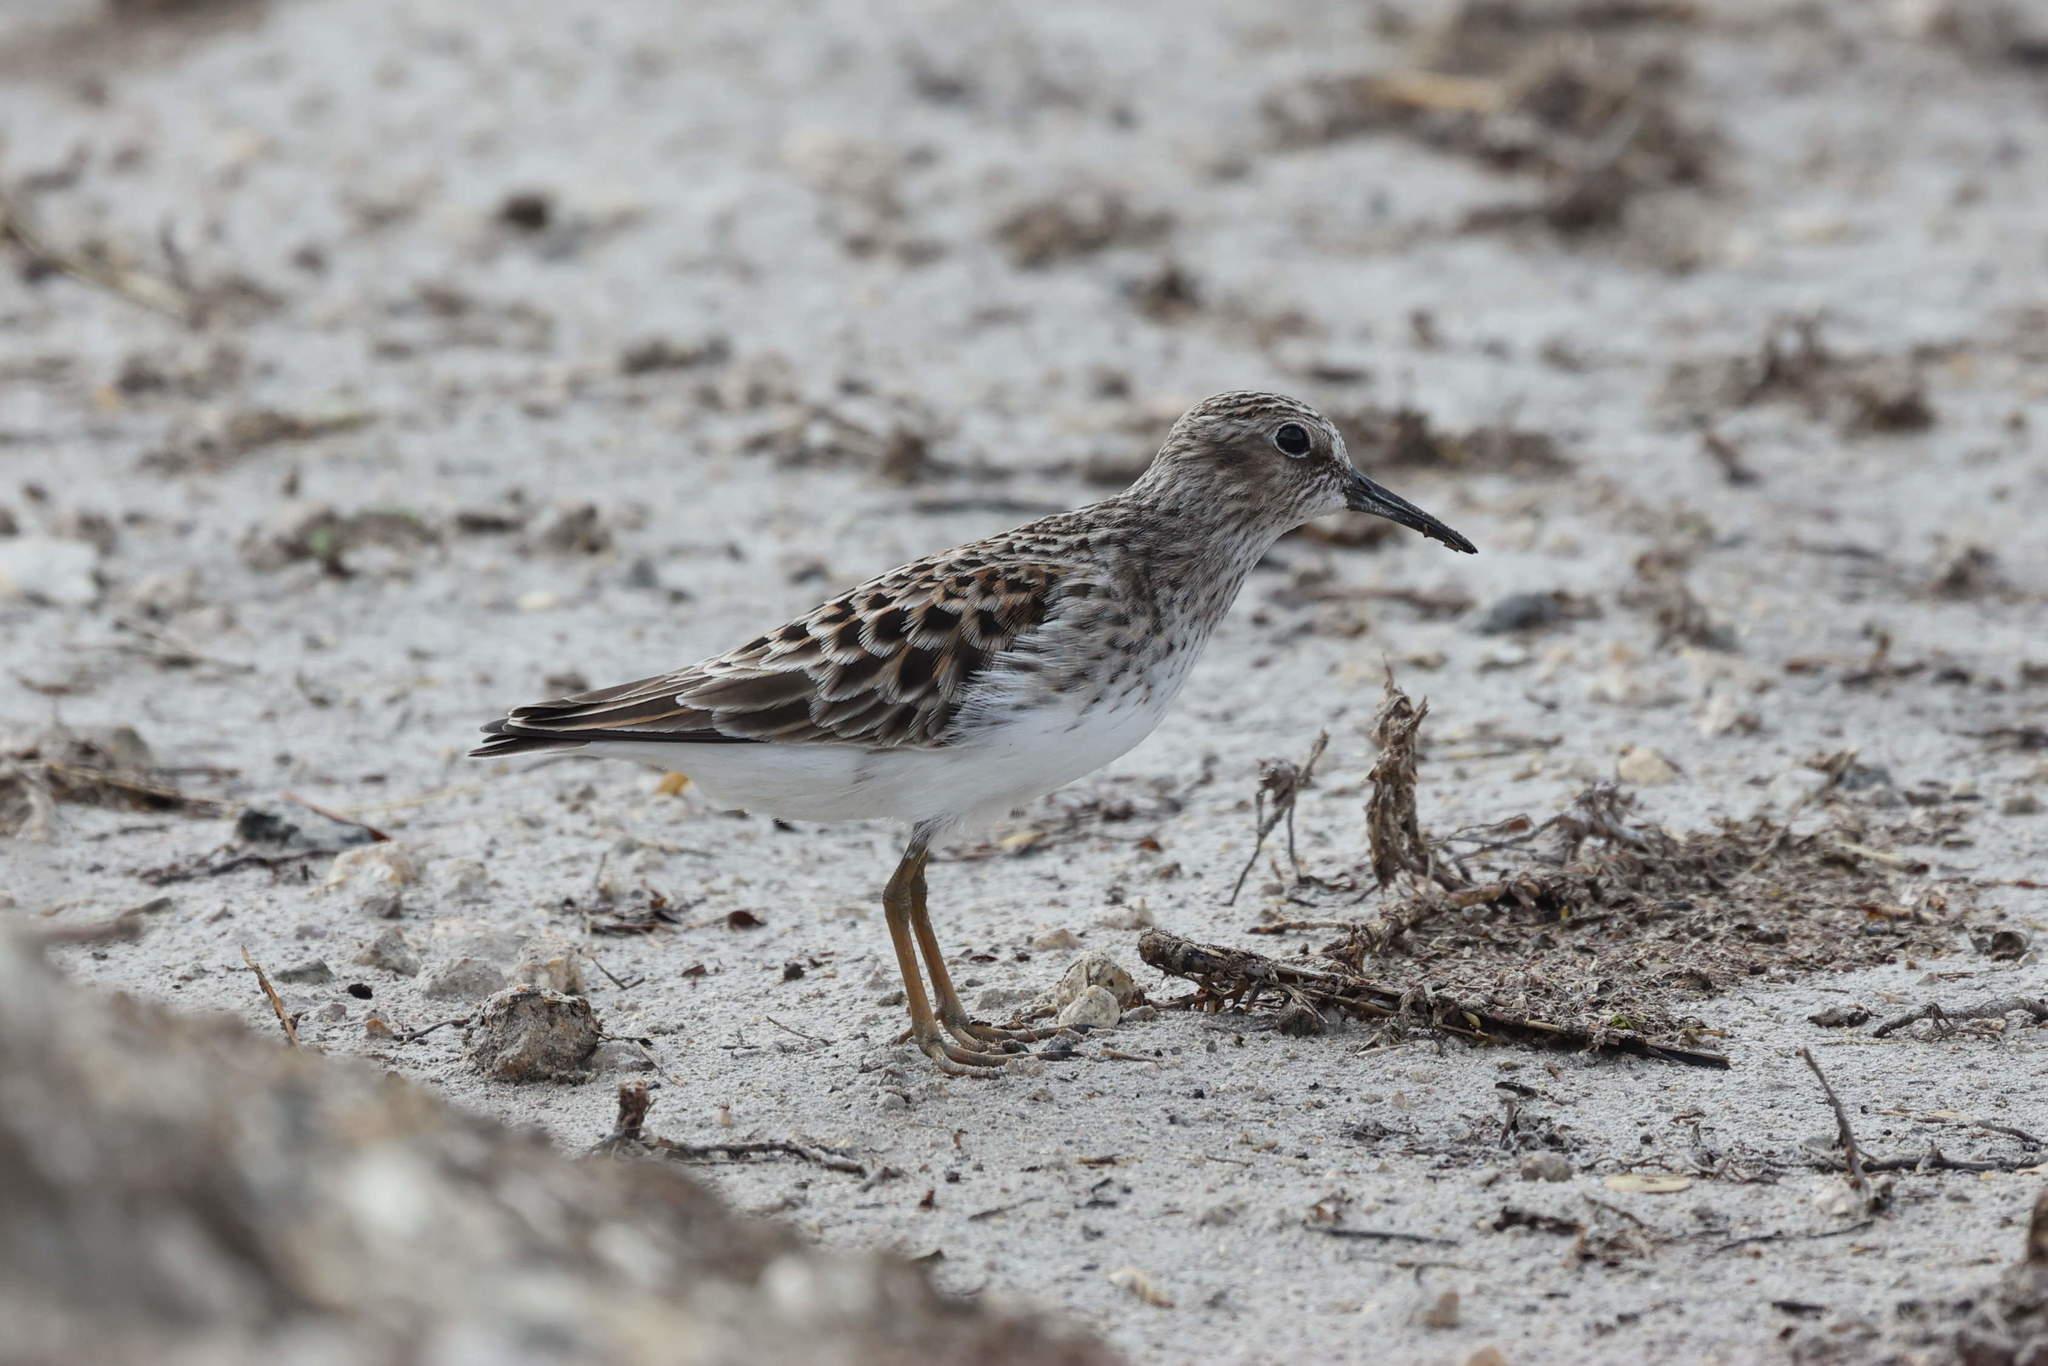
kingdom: Animalia
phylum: Chordata
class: Aves
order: Charadriiformes
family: Scolopacidae
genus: Calidris
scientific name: Calidris minutilla
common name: Least sandpiper
